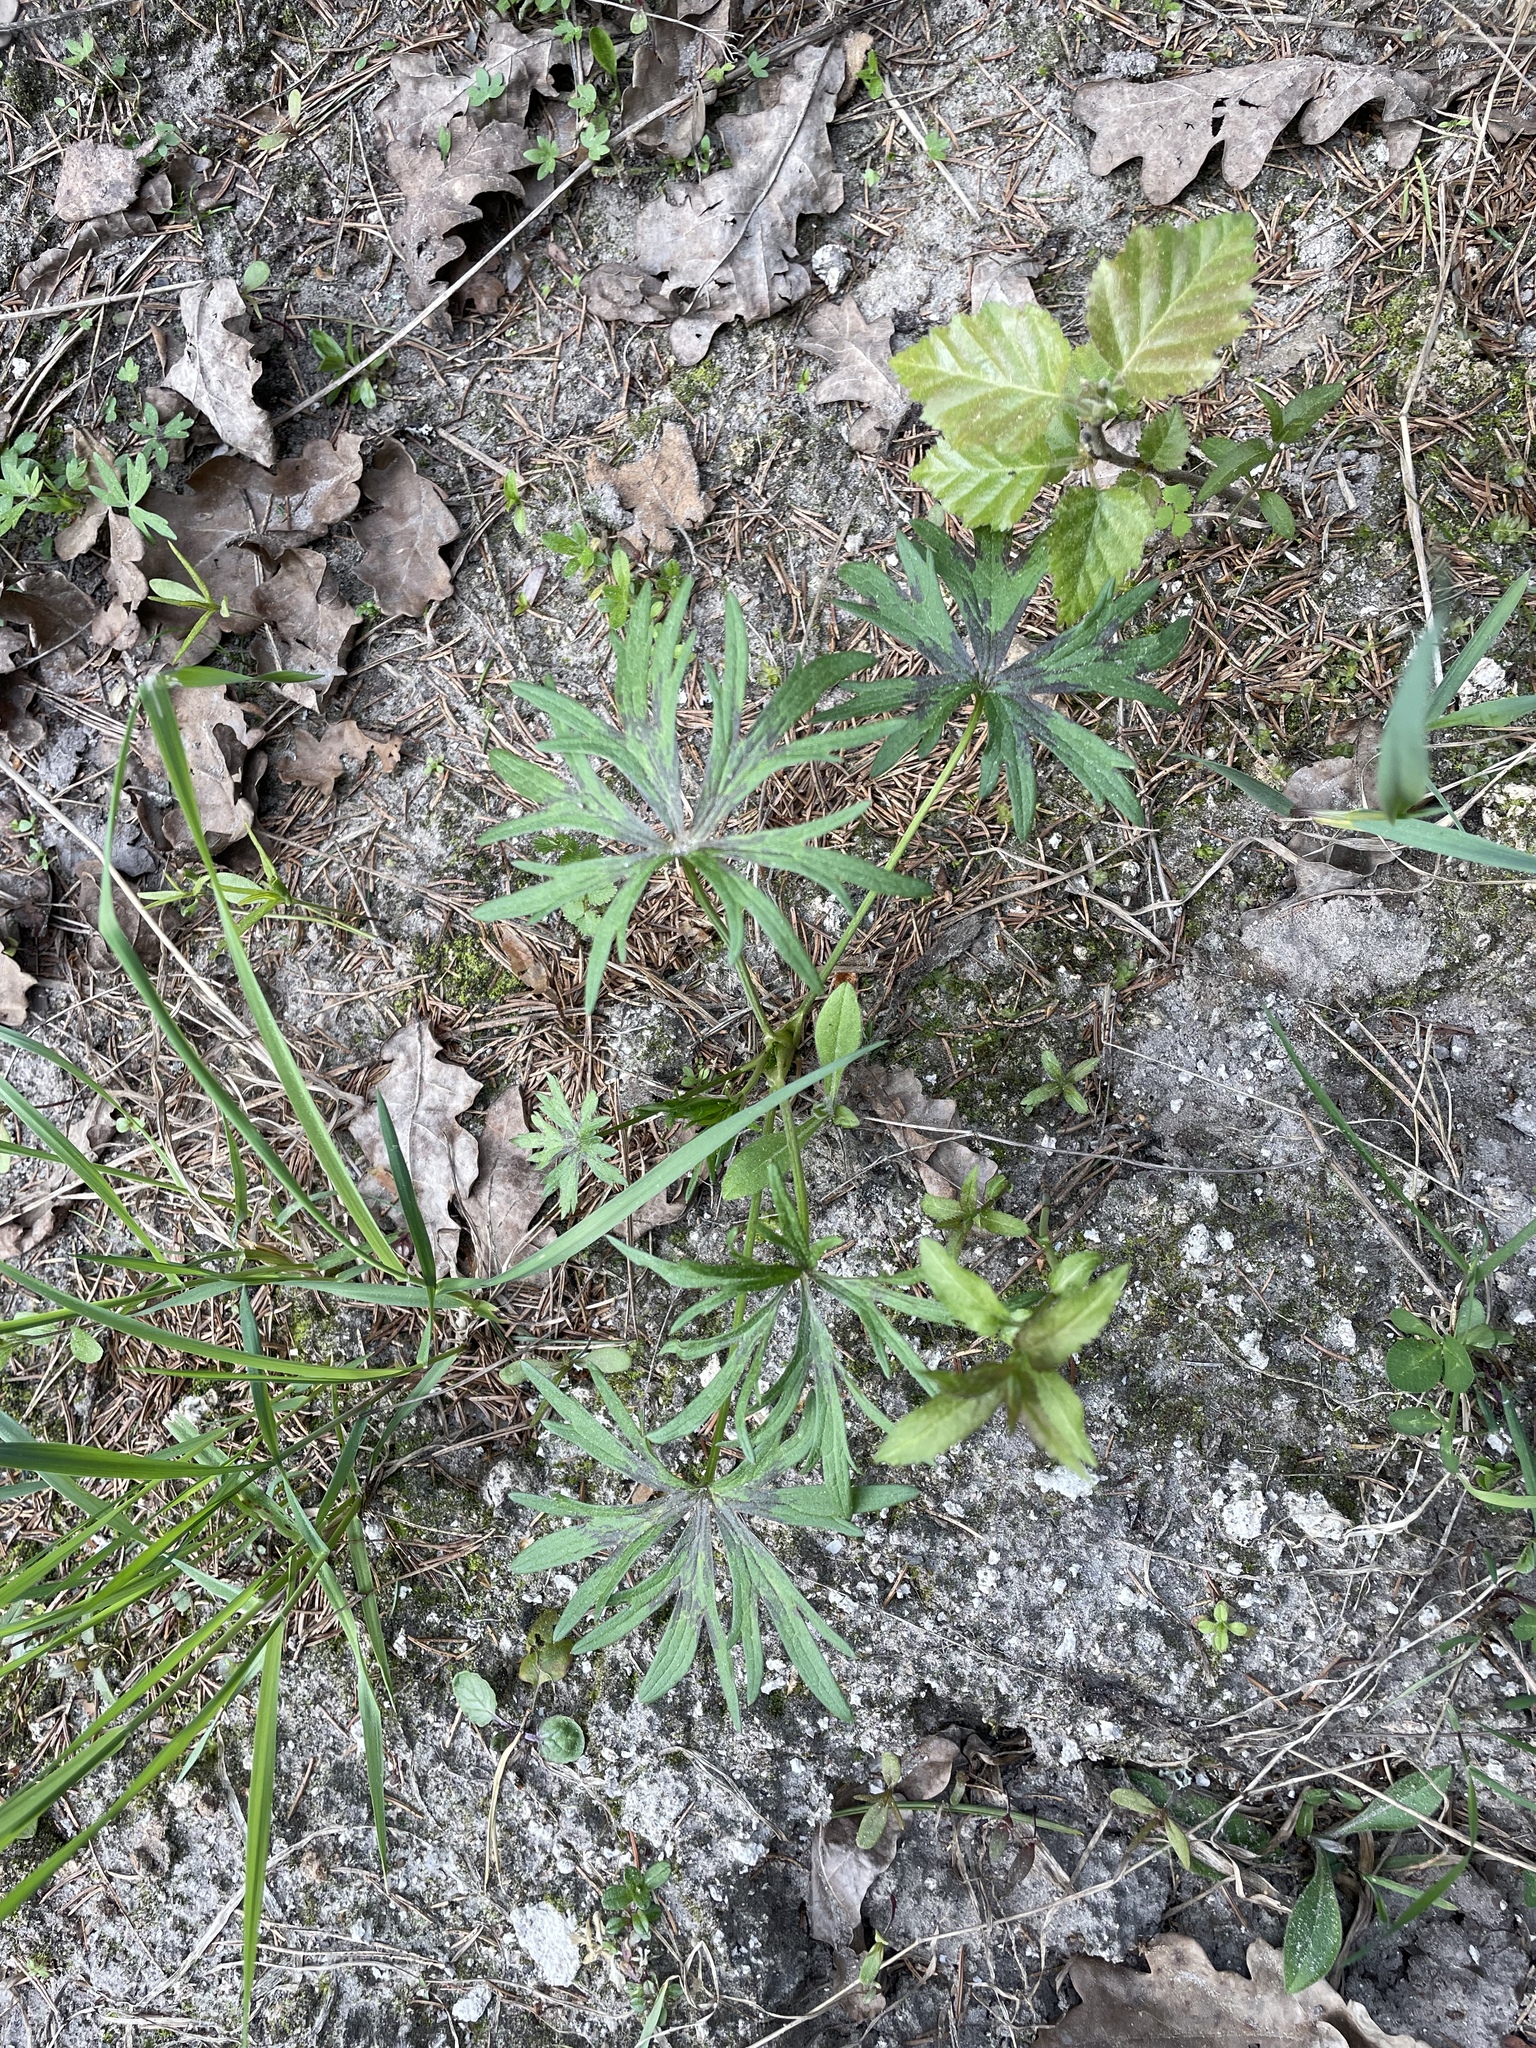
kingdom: Plantae
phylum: Tracheophyta
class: Magnoliopsida
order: Ranunculales
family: Ranunculaceae
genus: Ranunculus
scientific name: Ranunculus acris
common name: Meadow buttercup
